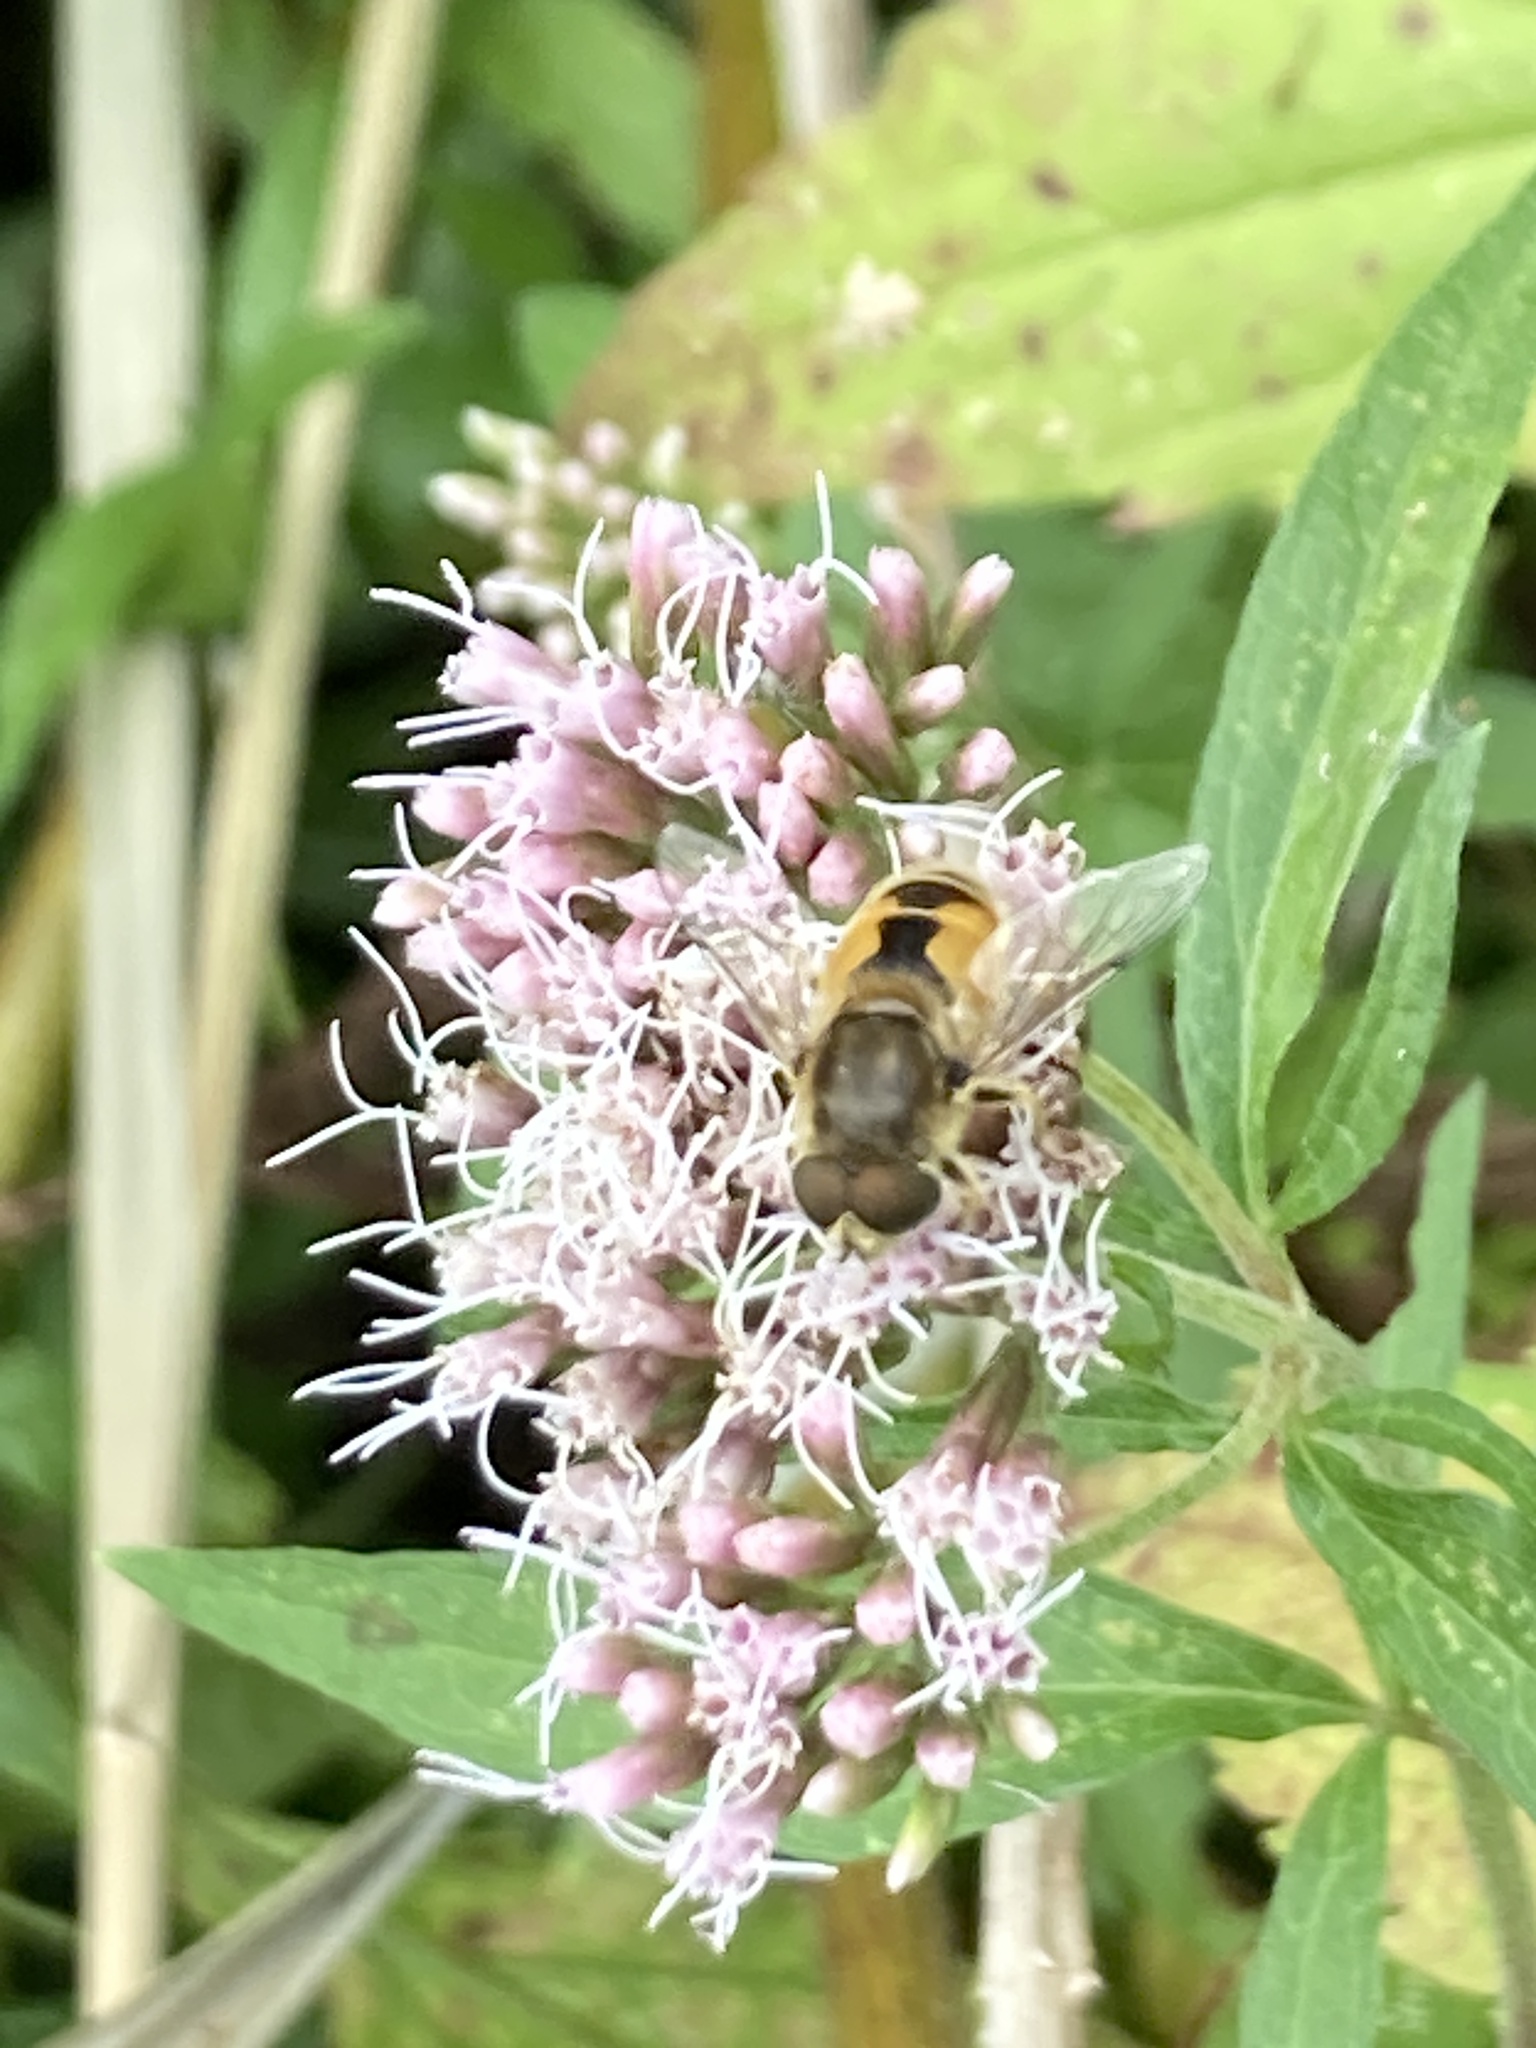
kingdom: Animalia
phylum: Arthropoda
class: Insecta
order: Diptera
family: Syrphidae
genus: Eristalis
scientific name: Eristalis arbustorum
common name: Hover fly
